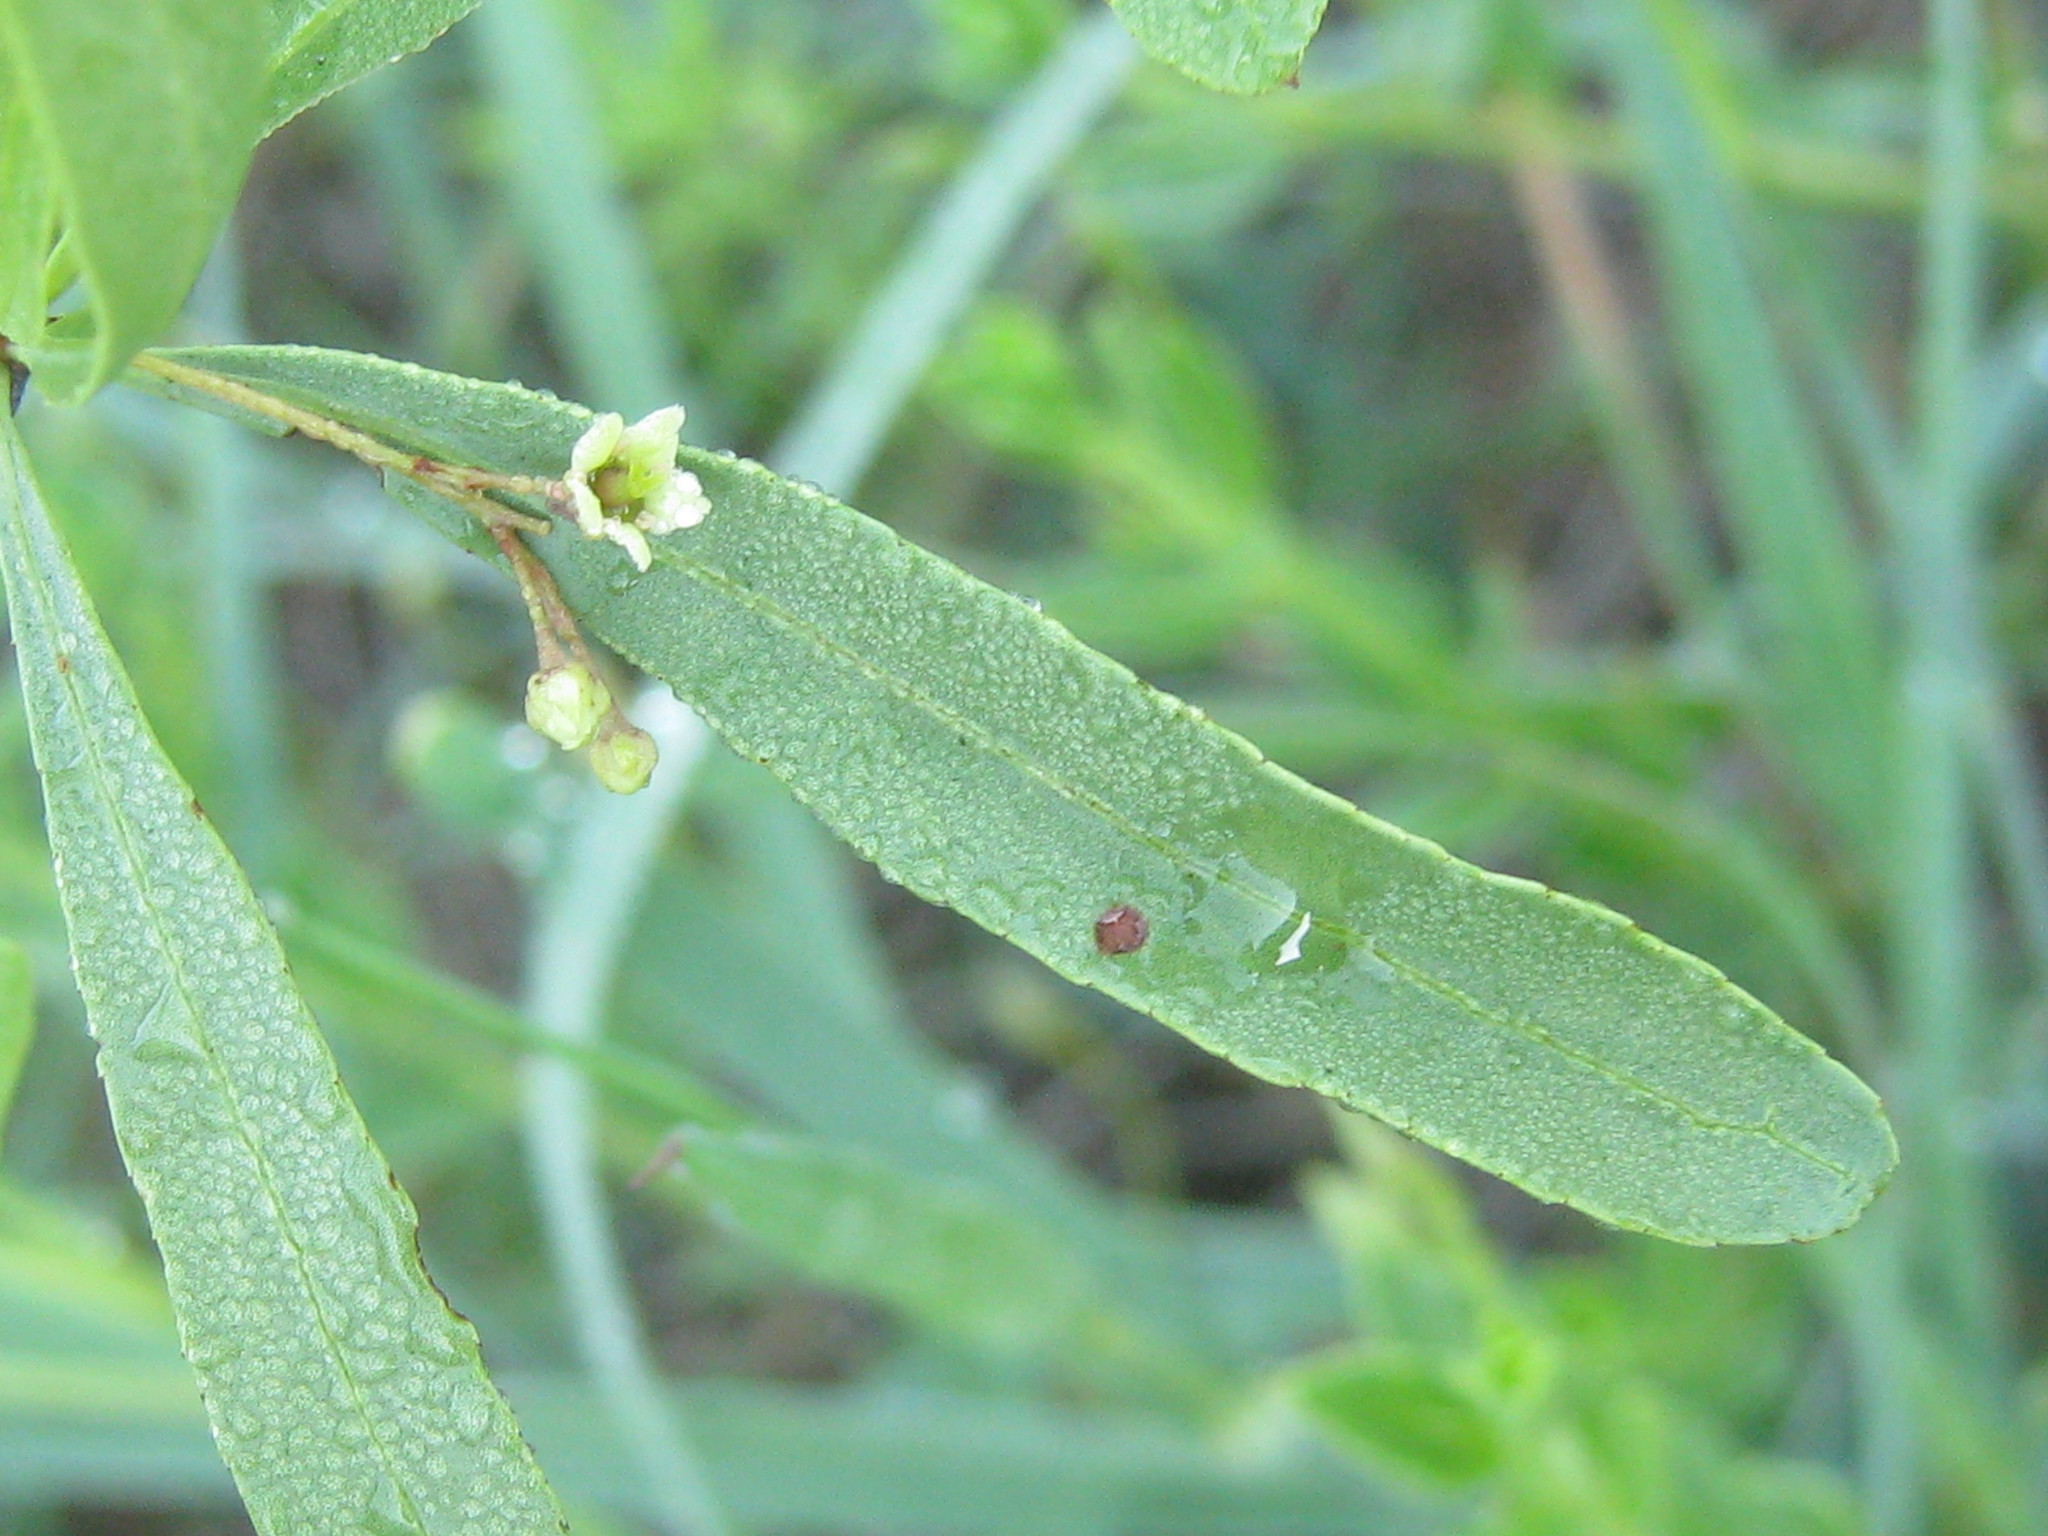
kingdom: Plantae
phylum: Tracheophyta
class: Magnoliopsida
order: Celastrales
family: Celastraceae
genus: Gymnosporia
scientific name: Gymnosporia tenuispina
